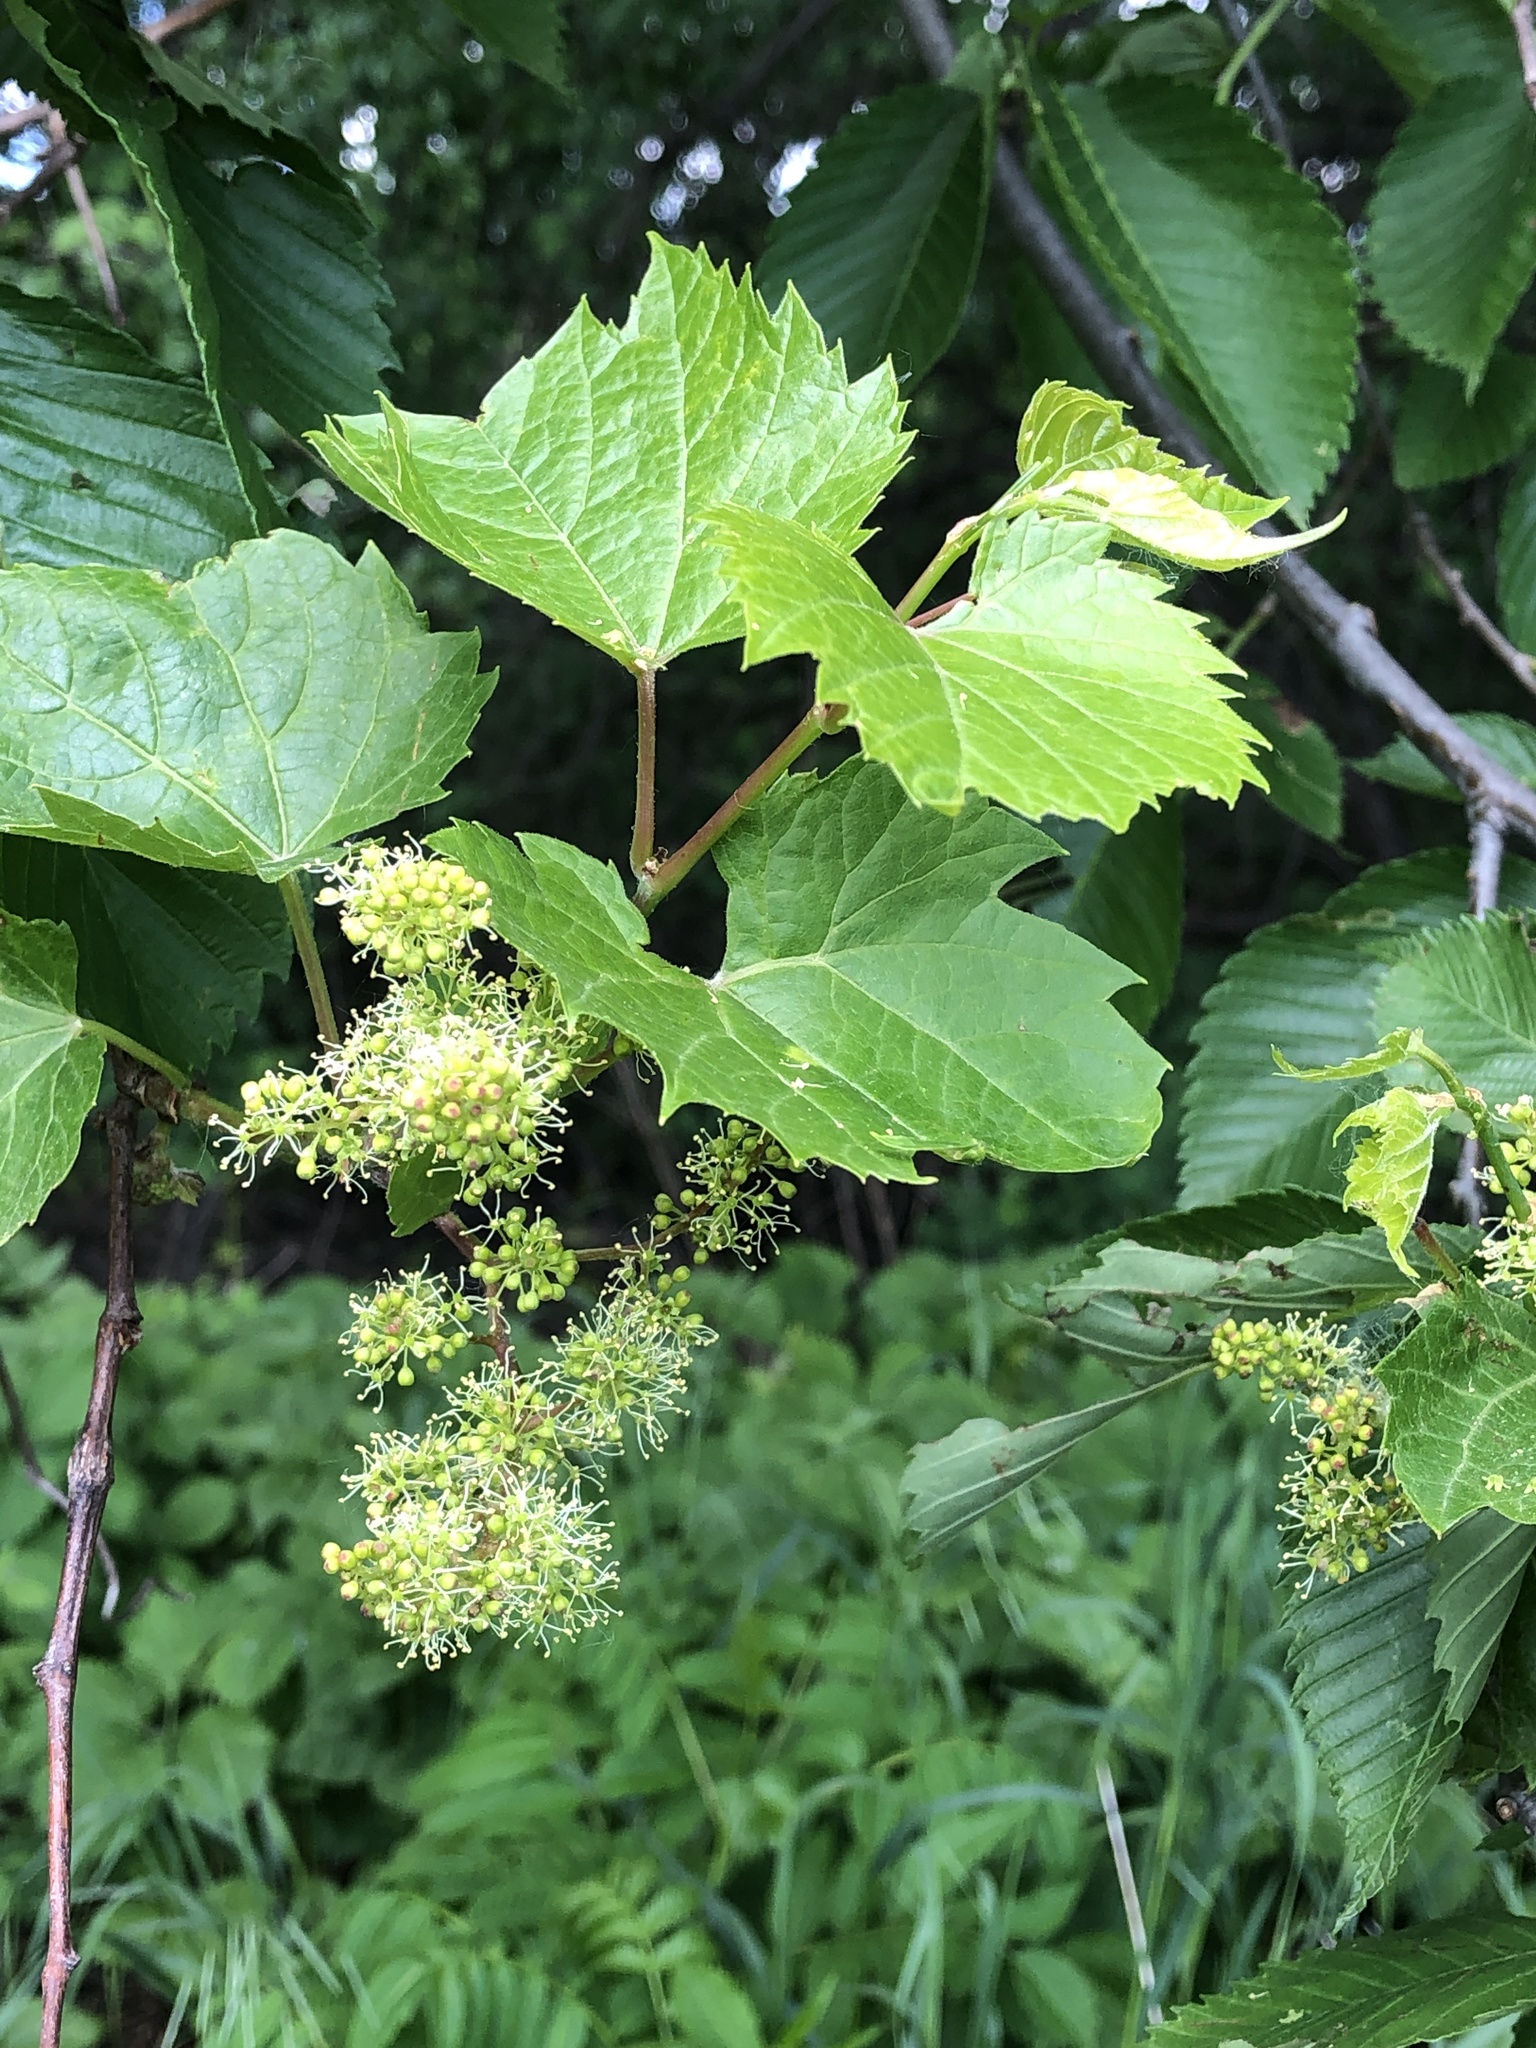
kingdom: Plantae
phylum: Tracheophyta
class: Magnoliopsida
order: Vitales
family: Vitaceae
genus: Vitis
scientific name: Vitis riparia
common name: Frost grape
